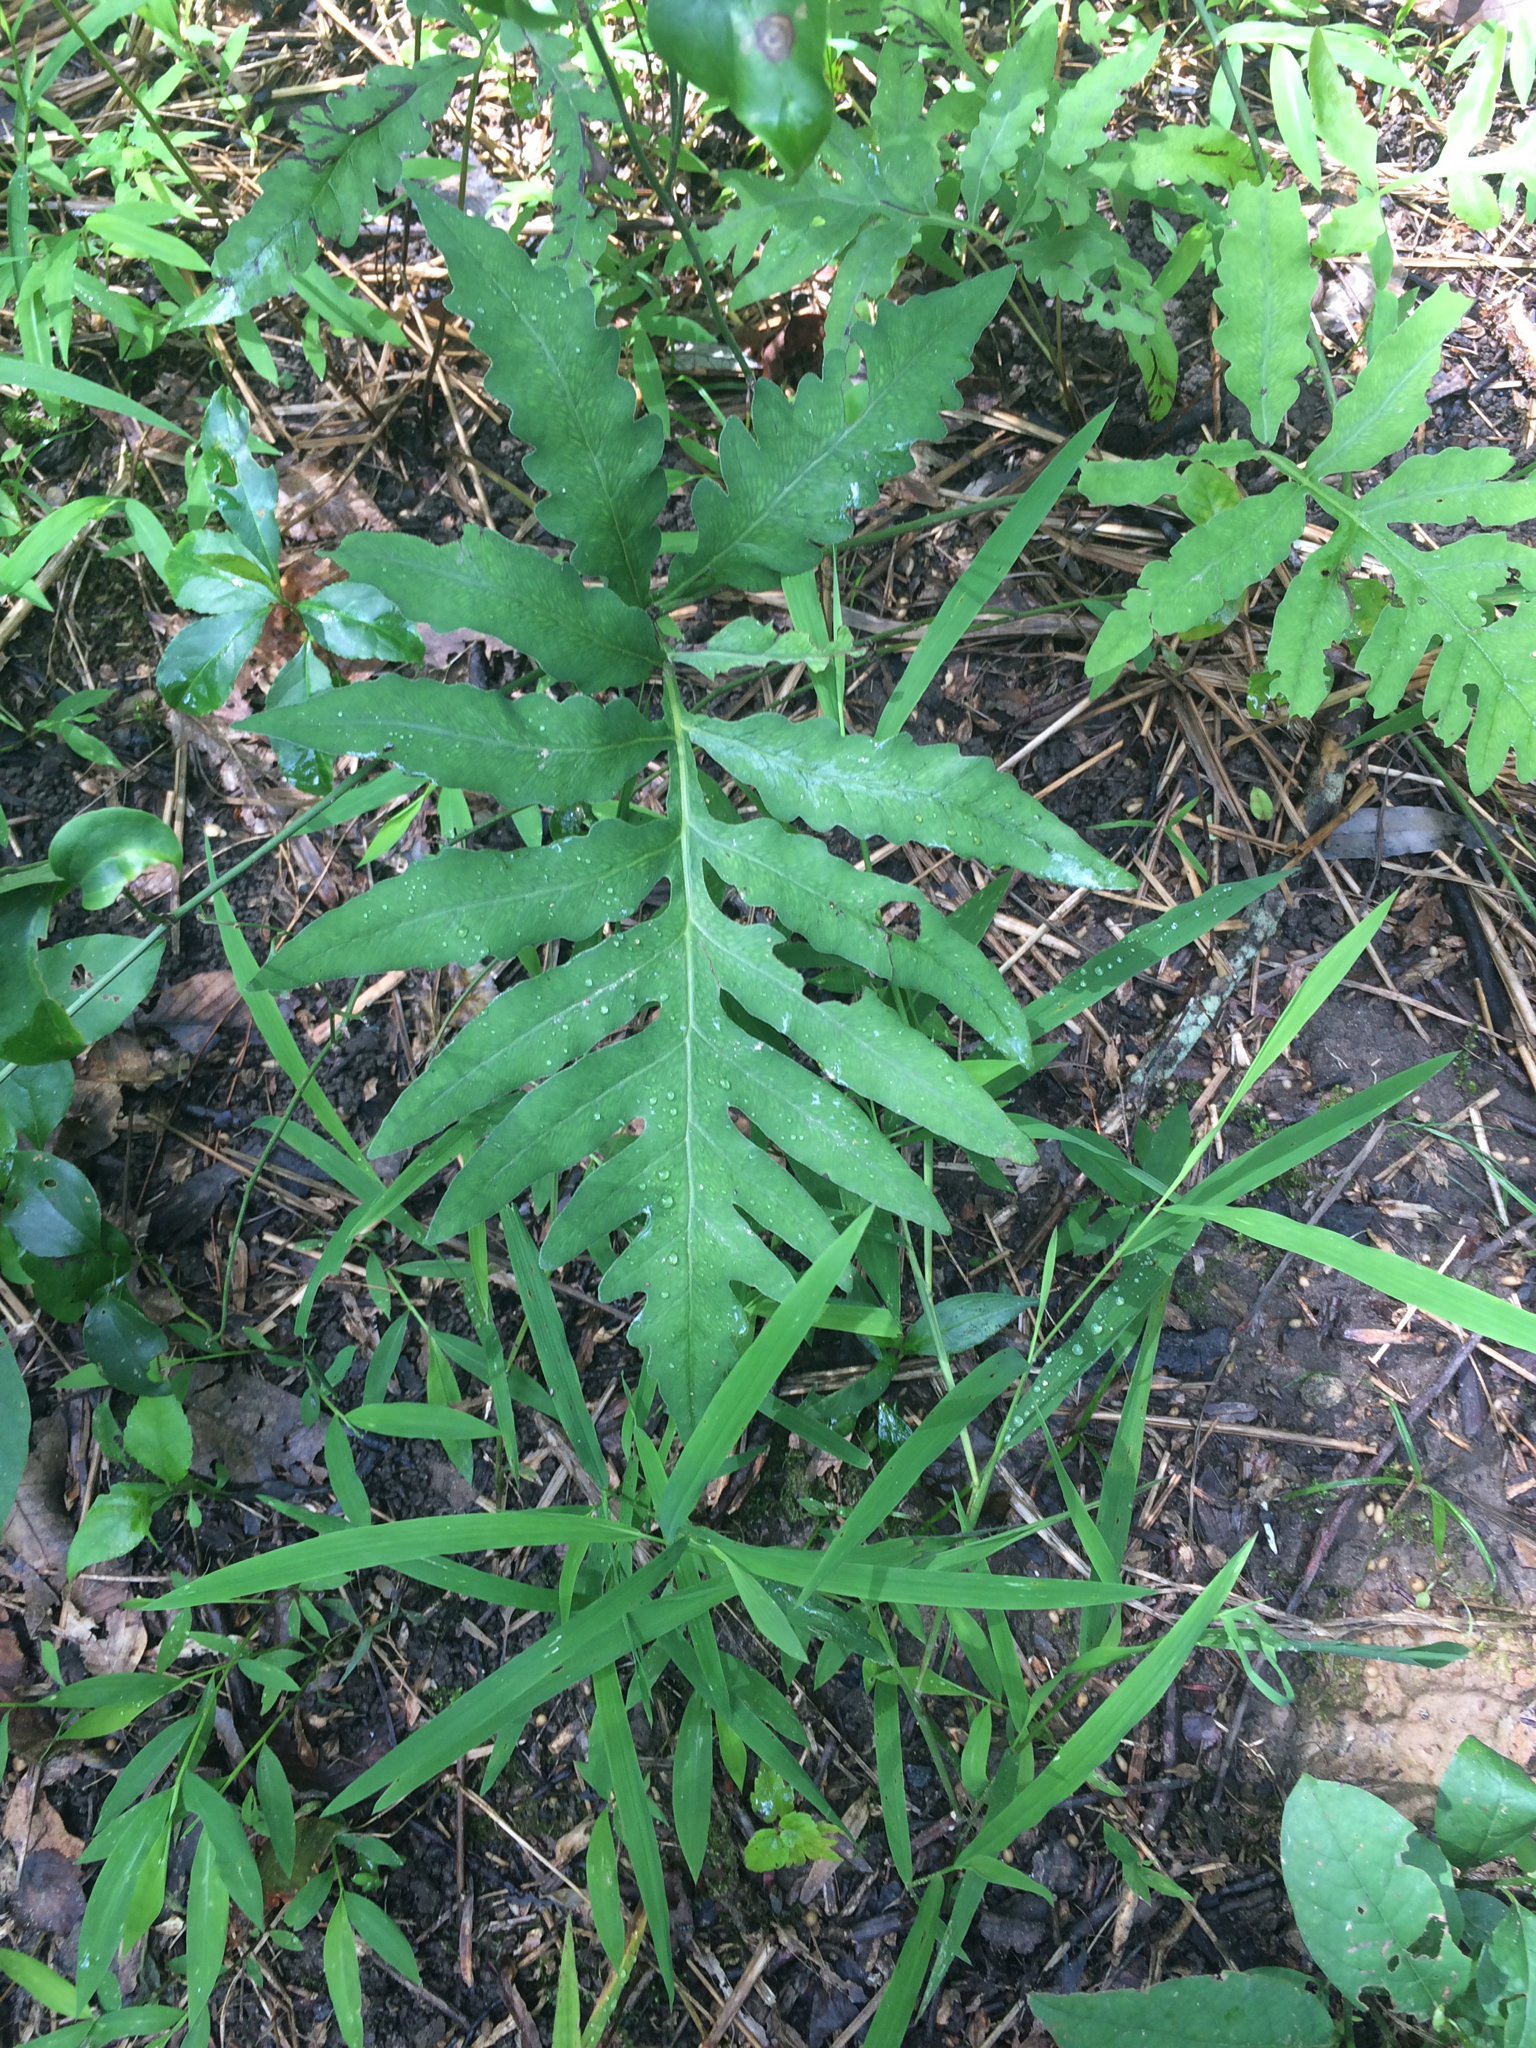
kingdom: Plantae
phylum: Tracheophyta
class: Polypodiopsida
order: Polypodiales
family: Onocleaceae
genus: Onoclea
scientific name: Onoclea sensibilis
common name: Sensitive fern
